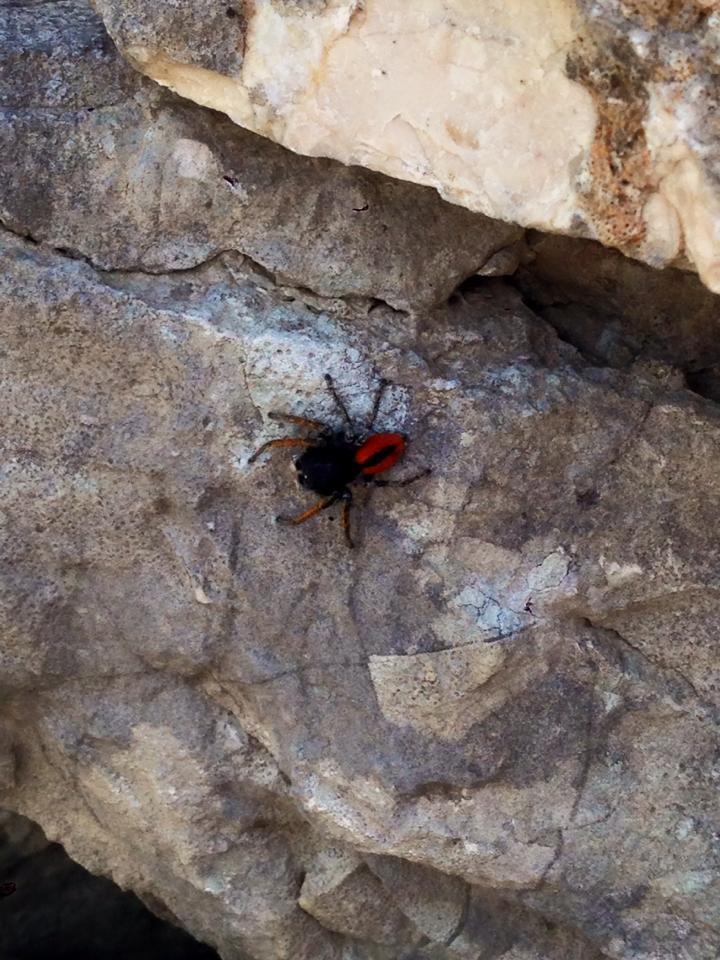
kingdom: Animalia
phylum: Arthropoda
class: Arachnida
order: Araneae
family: Salticidae
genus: Philaeus
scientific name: Philaeus chrysops
